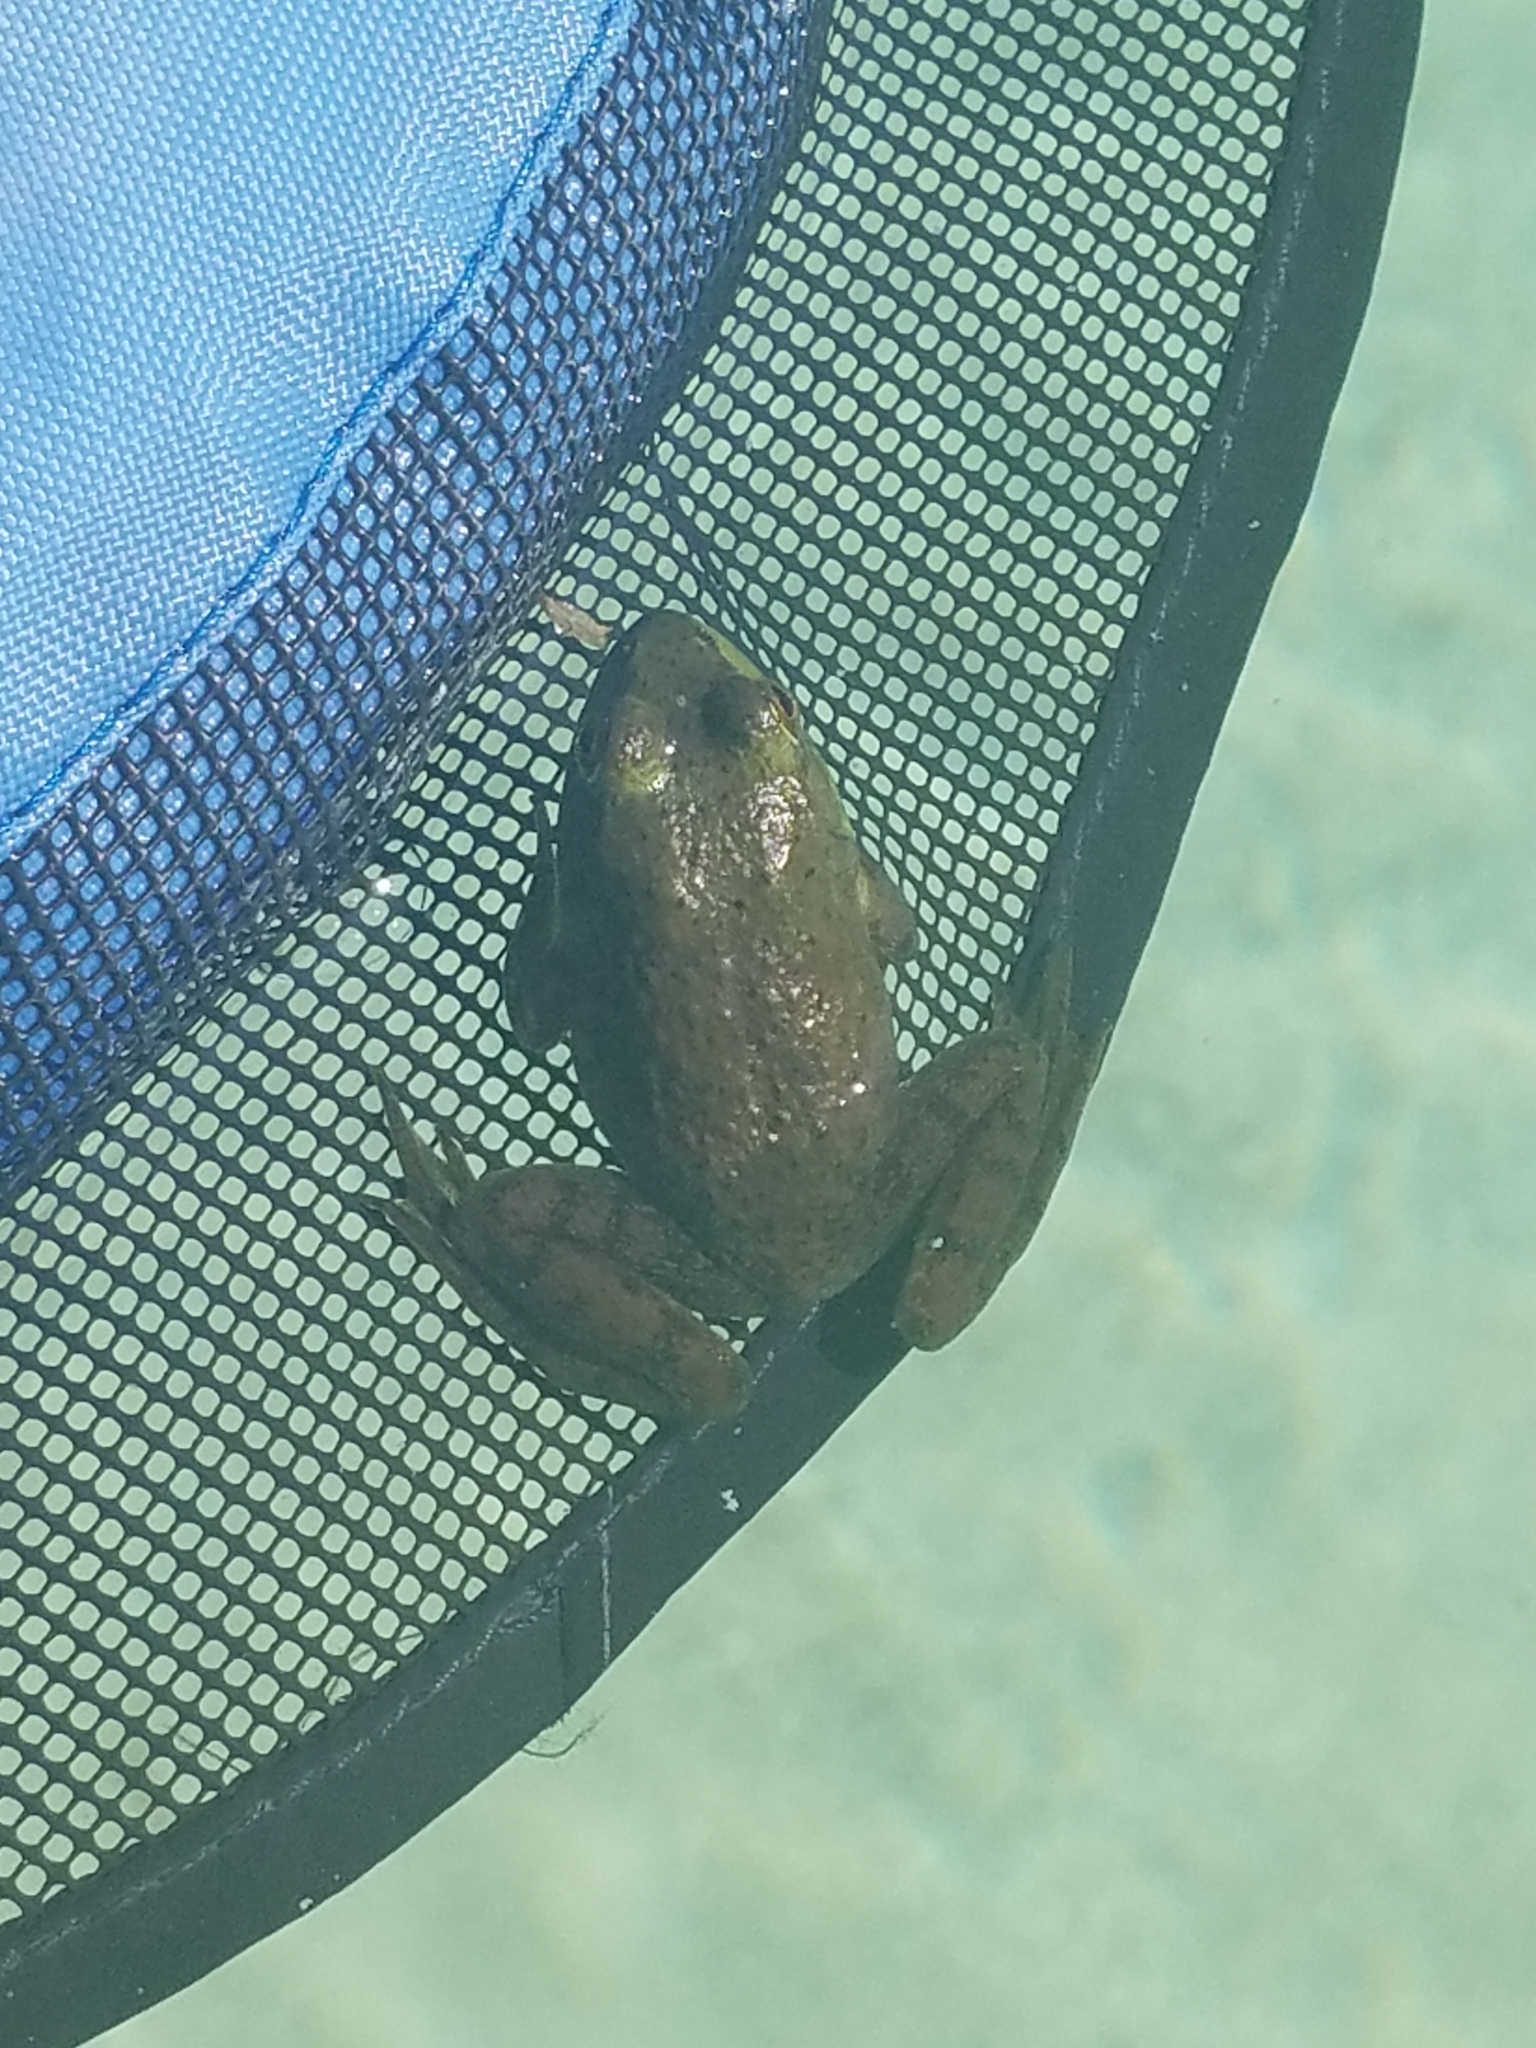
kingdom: Animalia
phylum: Chordata
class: Amphibia
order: Anura
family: Ranidae
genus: Lithobates
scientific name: Lithobates catesbeianus
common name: American bullfrog
